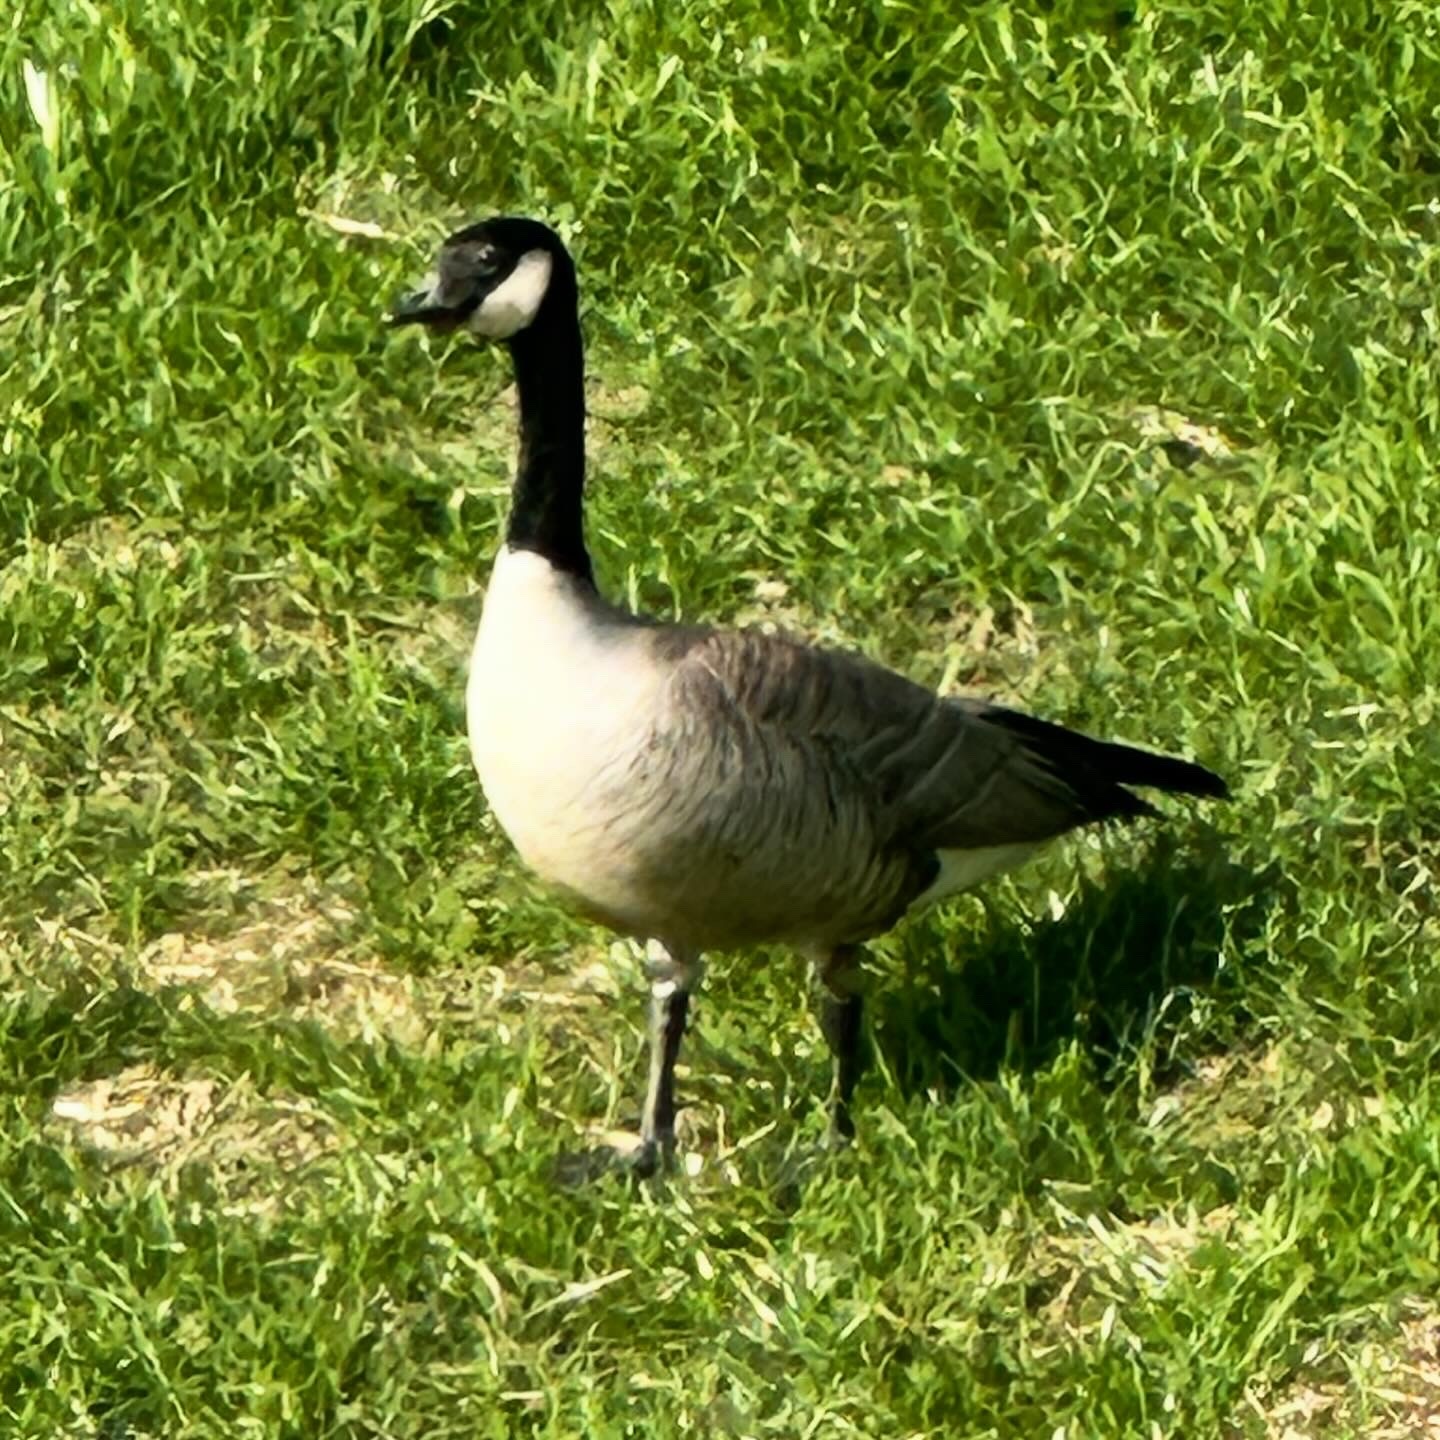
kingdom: Animalia
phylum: Chordata
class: Aves
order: Anseriformes
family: Anatidae
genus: Branta
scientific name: Branta hutchinsii
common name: Cackling goose
